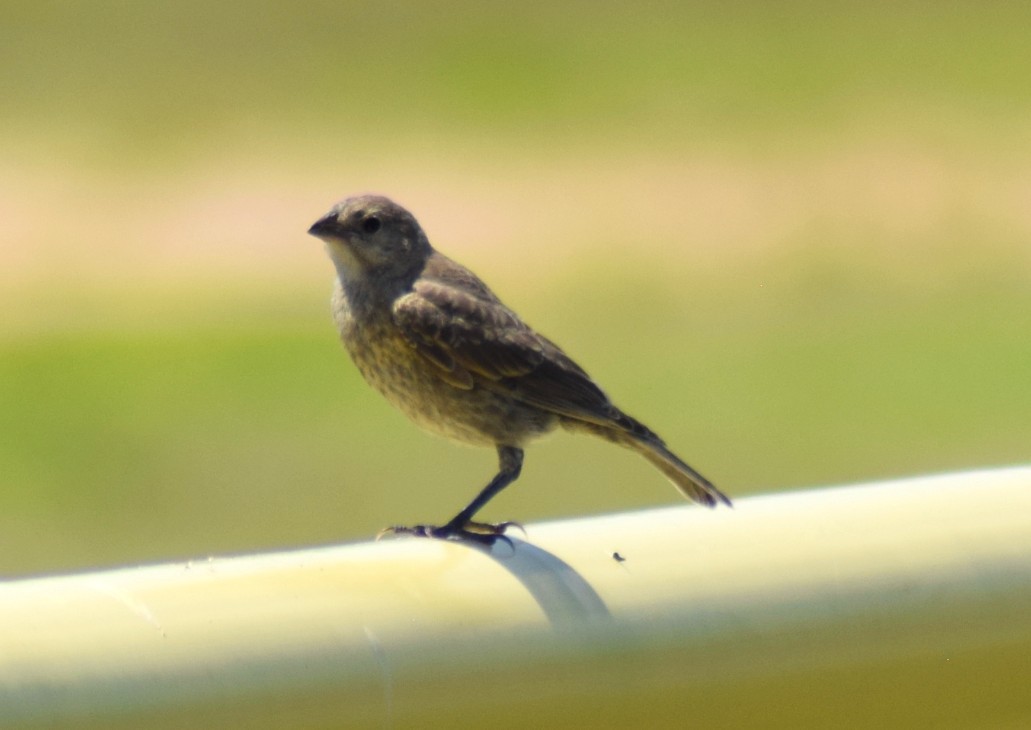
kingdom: Animalia
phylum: Chordata
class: Aves
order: Passeriformes
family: Icteridae
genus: Molothrus
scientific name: Molothrus ater
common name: Brown-headed cowbird
